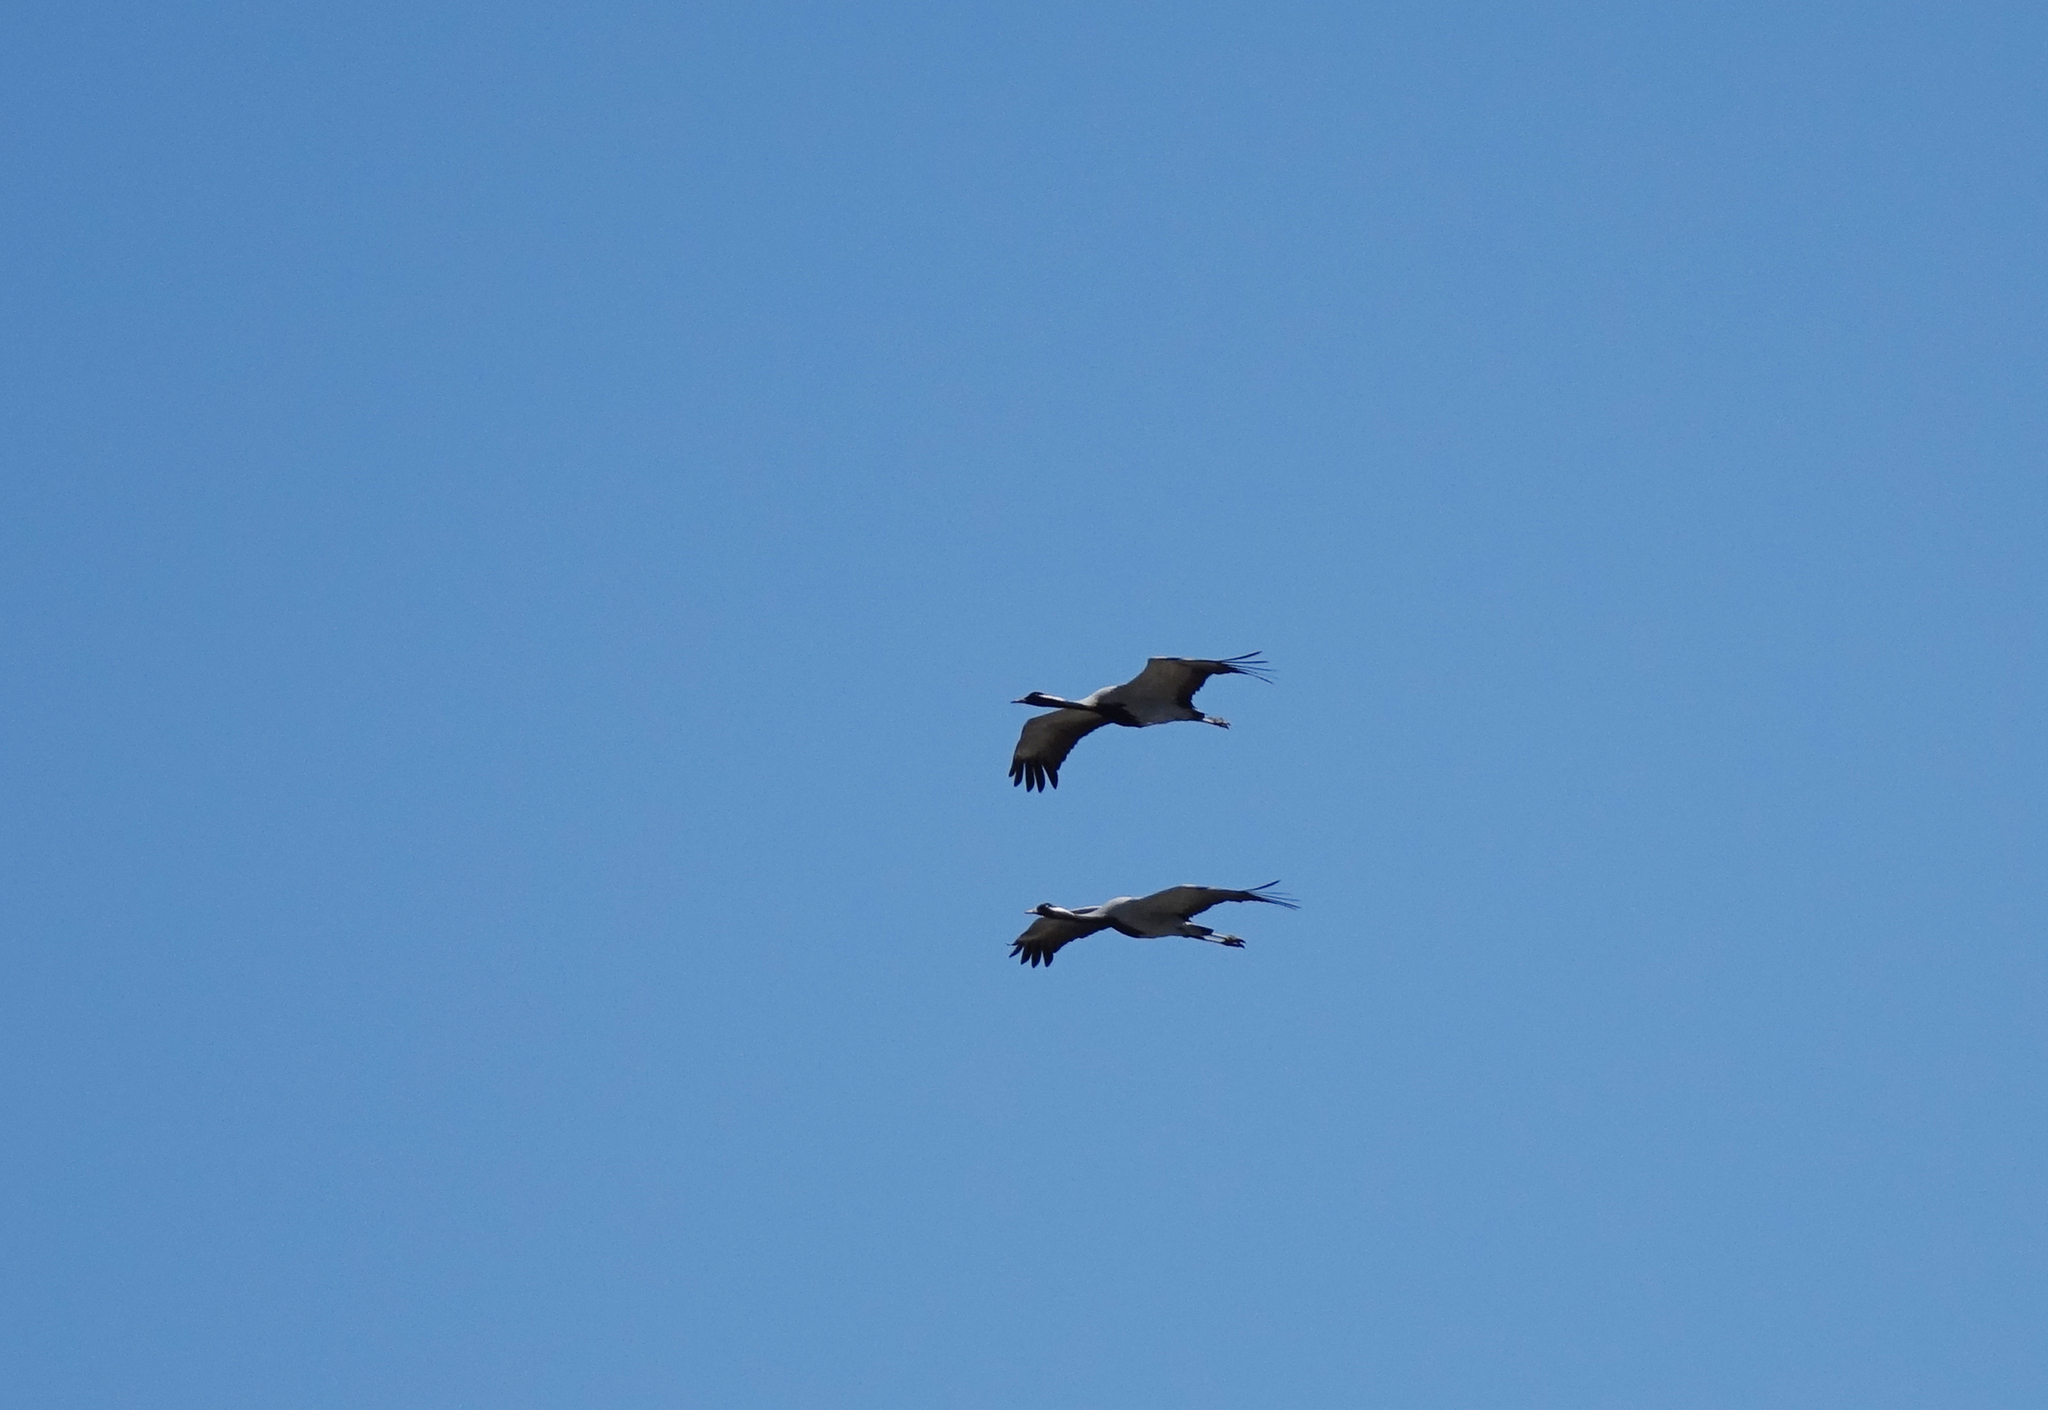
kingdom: Animalia
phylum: Chordata
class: Aves
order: Gruiformes
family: Gruidae
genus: Anthropoides
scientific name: Anthropoides virgo
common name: Demoiselle crane
